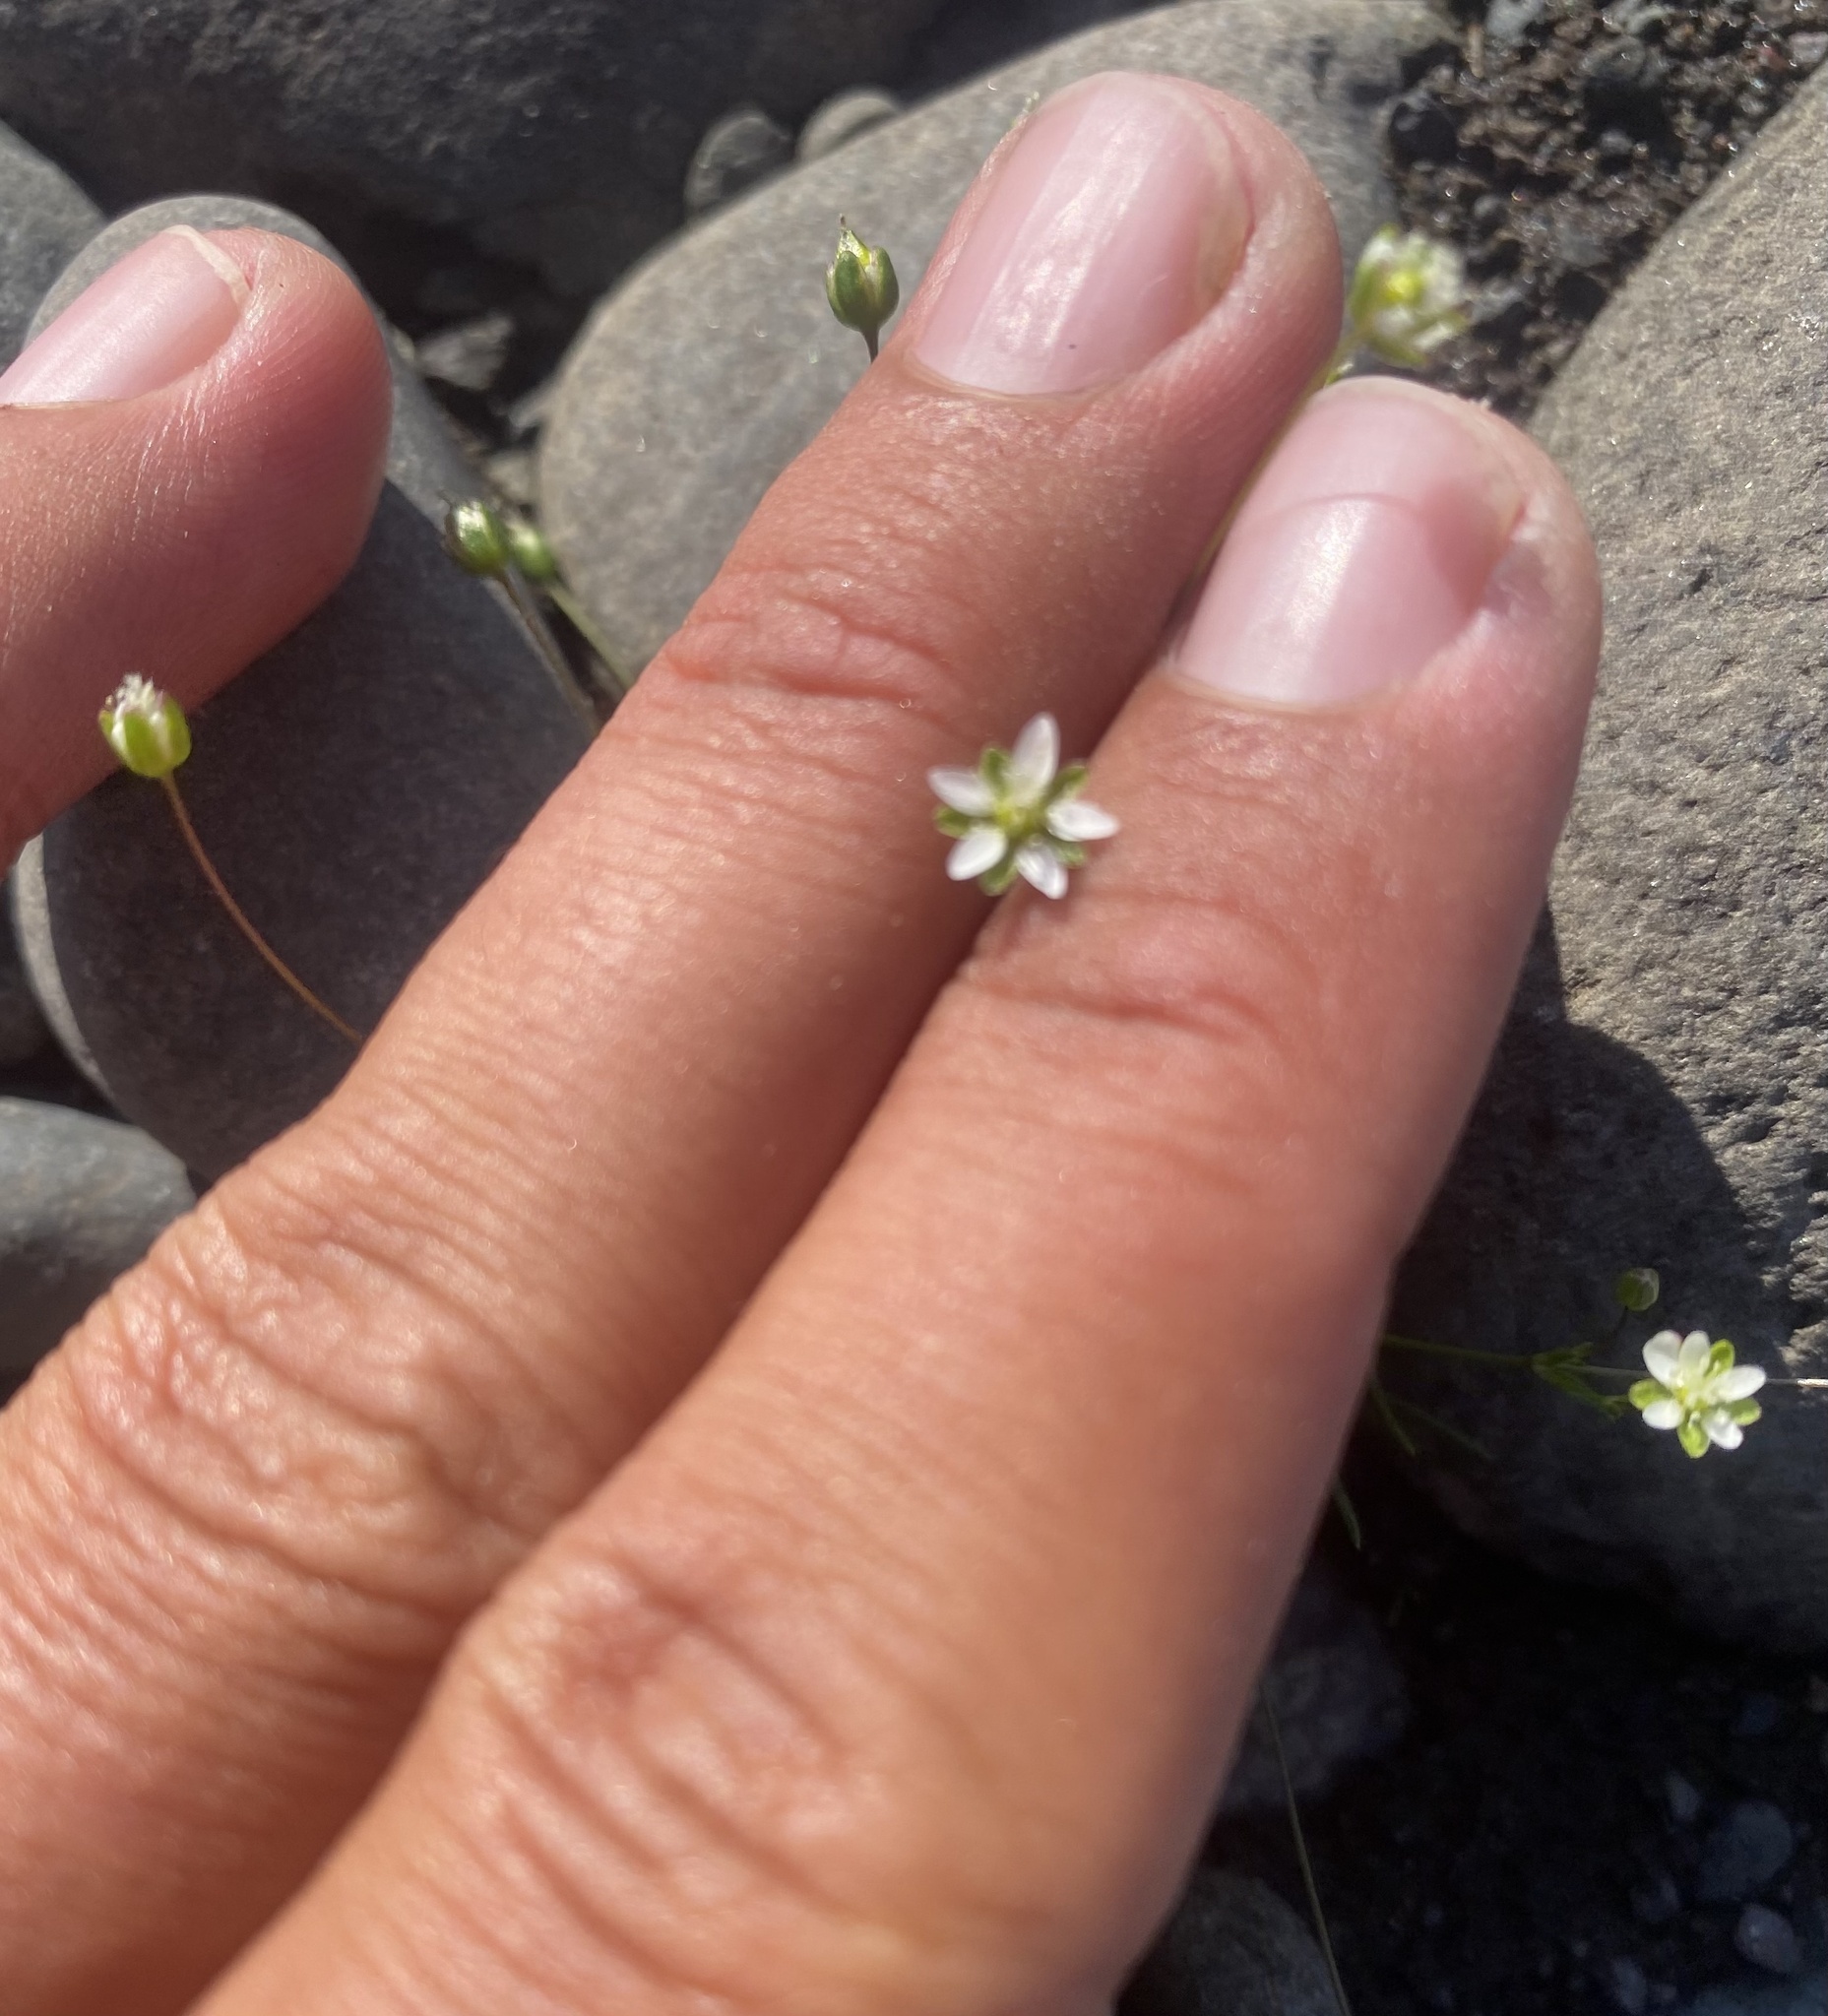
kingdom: Plantae
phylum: Tracheophyta
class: Magnoliopsida
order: Caryophyllales
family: Caryophyllaceae
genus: Sabulina
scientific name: Sabulina verna
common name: Spring sandwort
